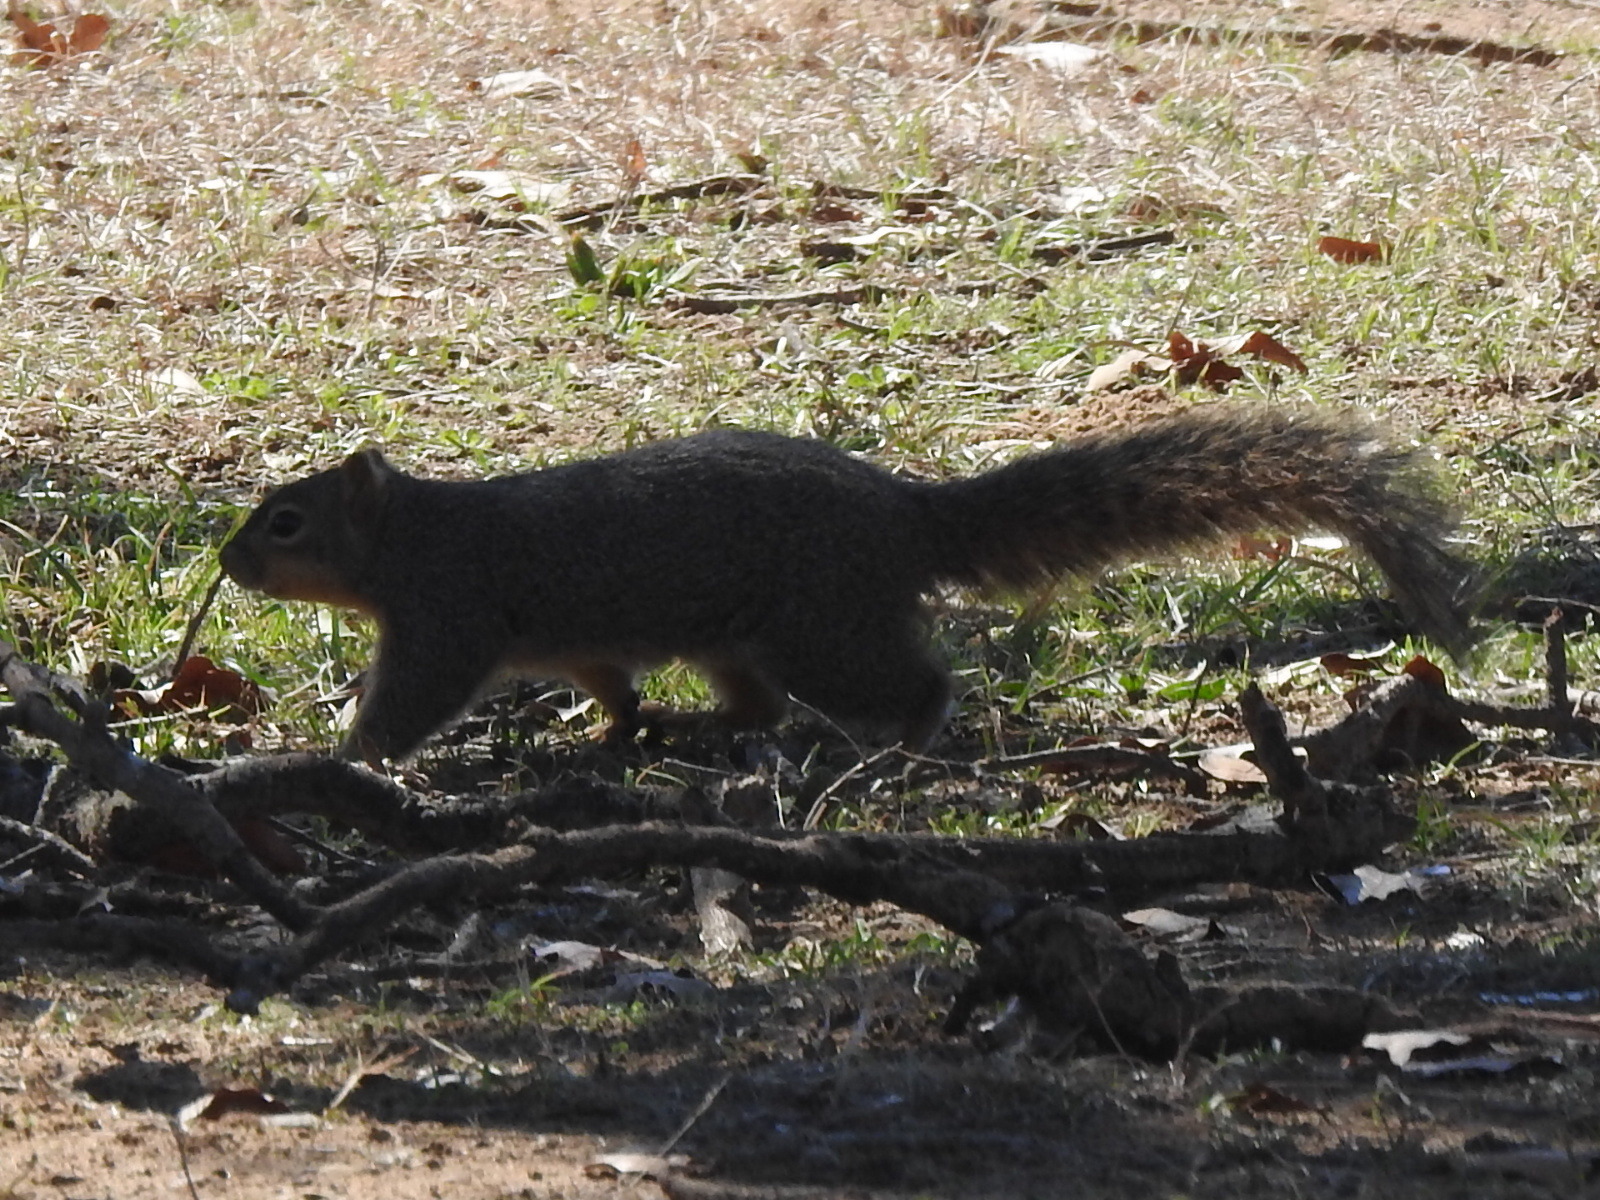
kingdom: Animalia
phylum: Chordata
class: Mammalia
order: Rodentia
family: Sciuridae
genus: Sciurus
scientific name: Sciurus niger
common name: Fox squirrel
